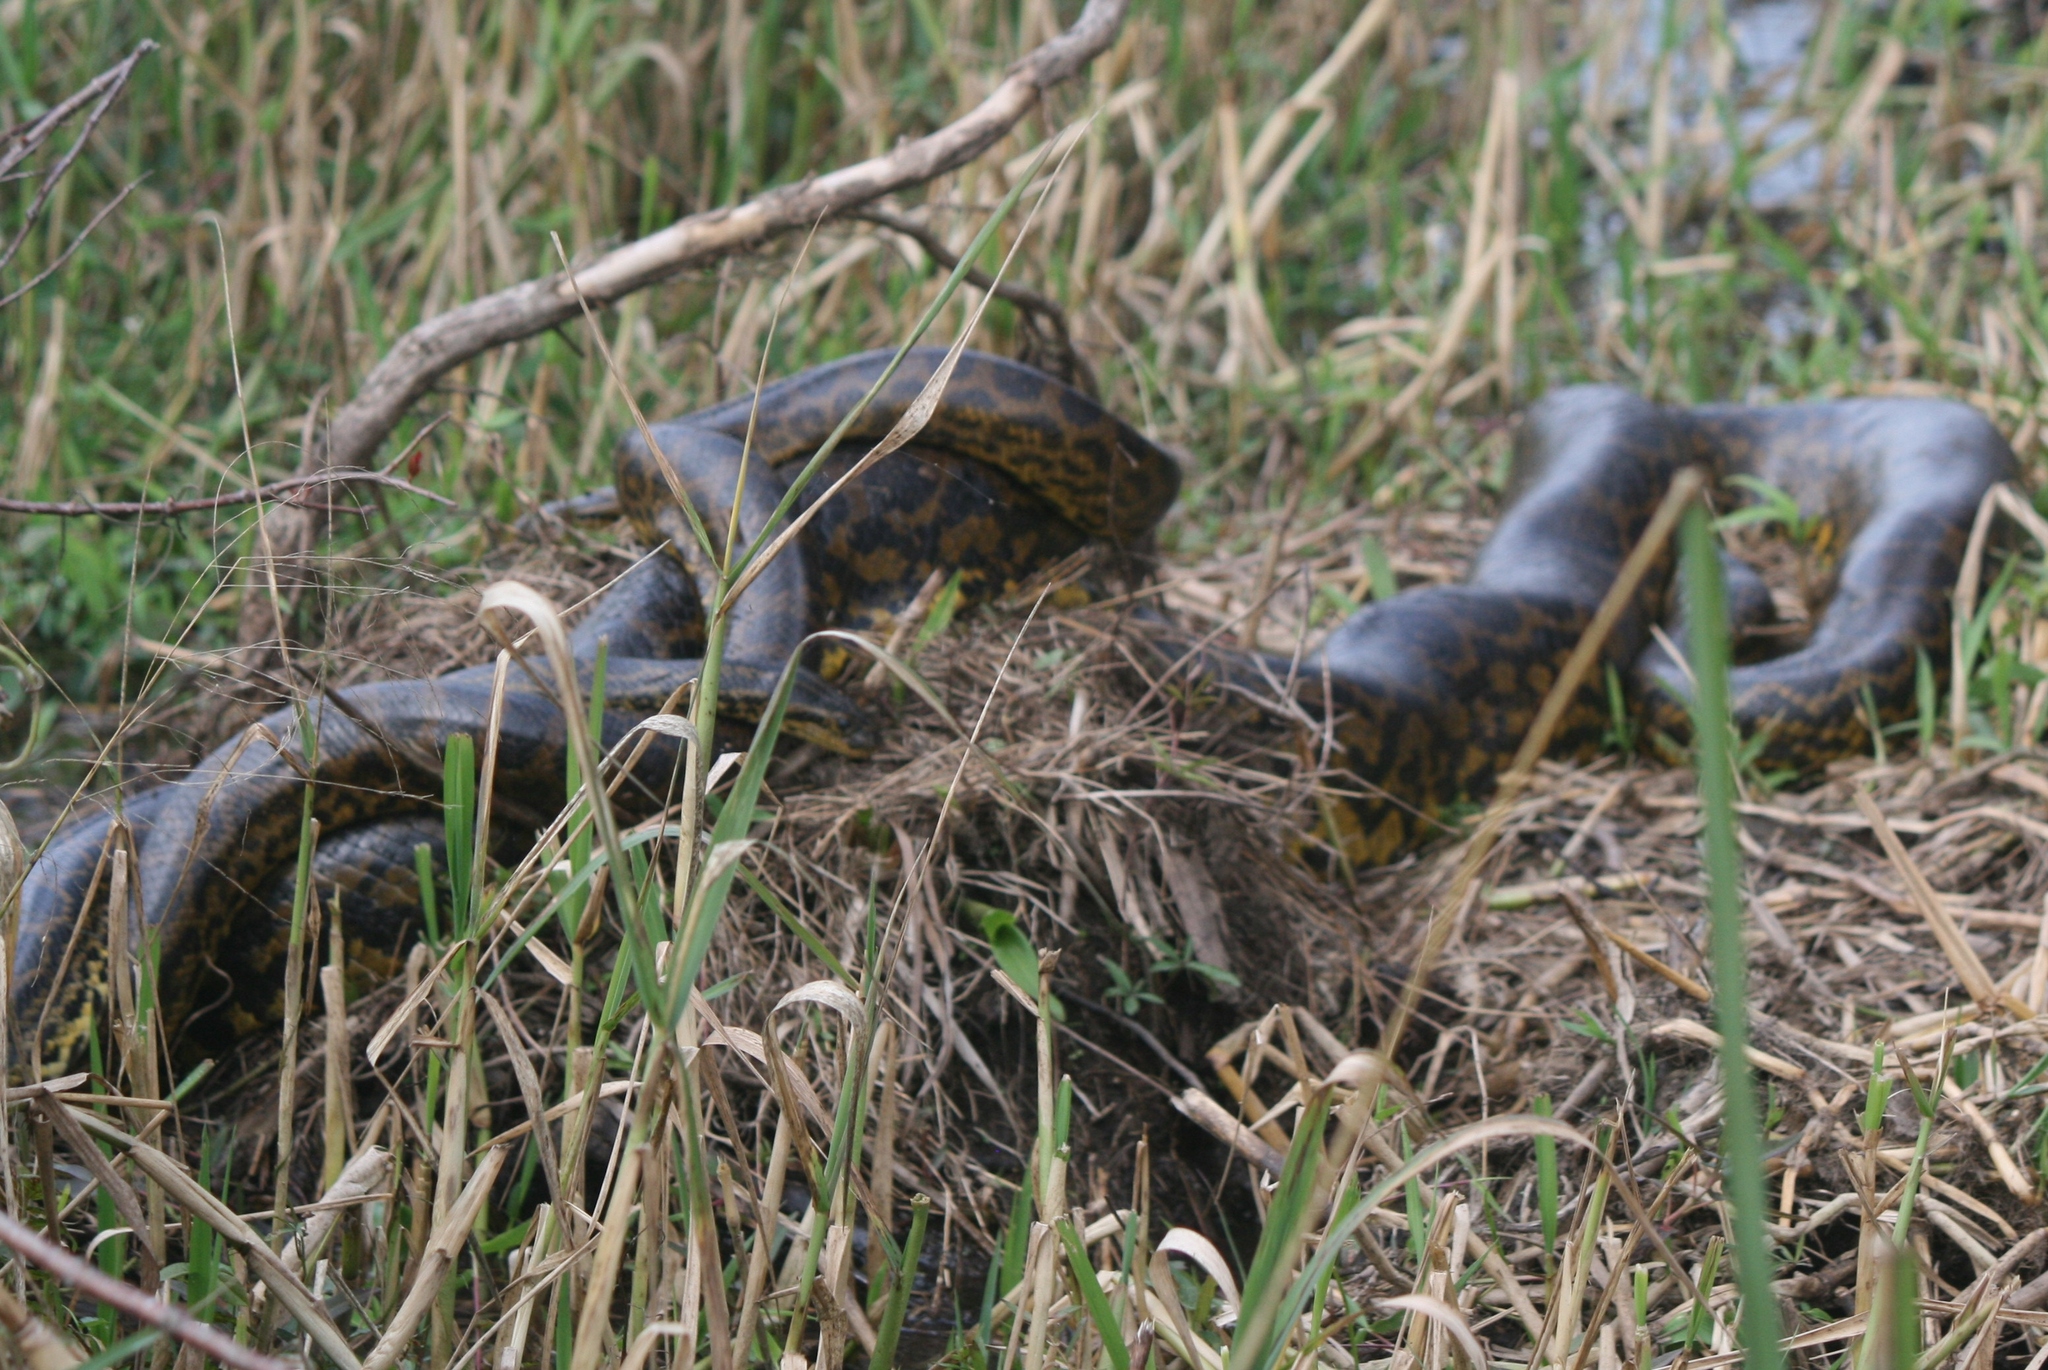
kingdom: Animalia
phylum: Chordata
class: Squamata
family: Boidae
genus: Eunectes
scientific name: Eunectes notaeus
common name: Yellow anaconda
